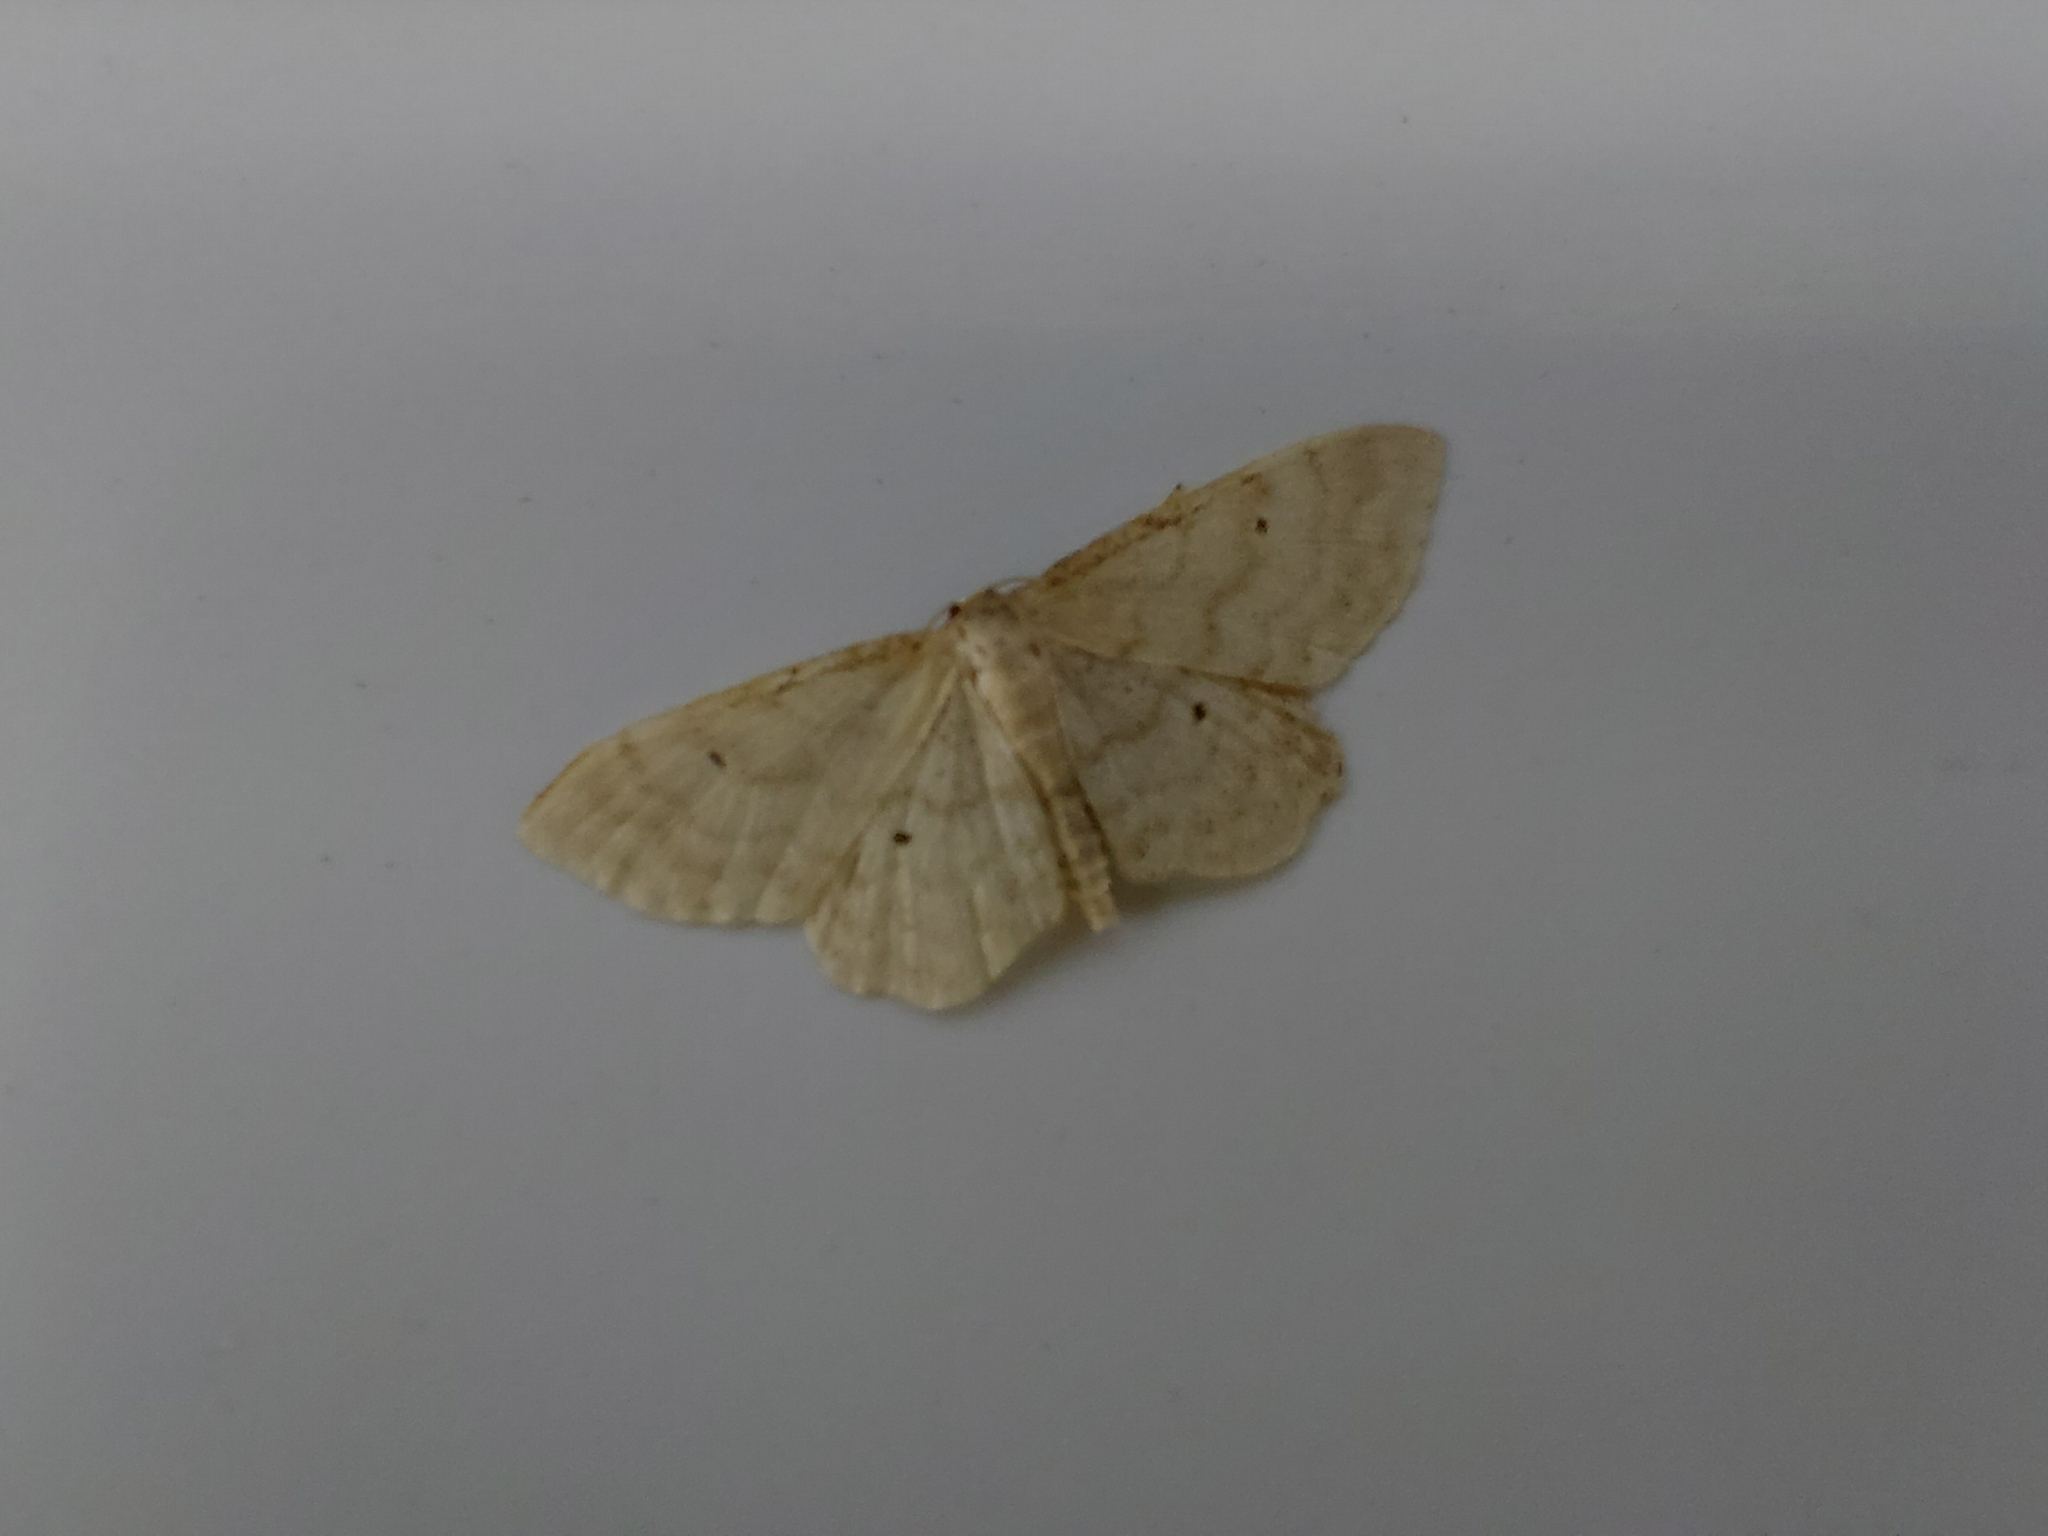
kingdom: Animalia
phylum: Arthropoda
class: Insecta
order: Lepidoptera
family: Geometridae
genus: Idaea
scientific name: Idaea fuscovenosa
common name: Dwarf cream wave
